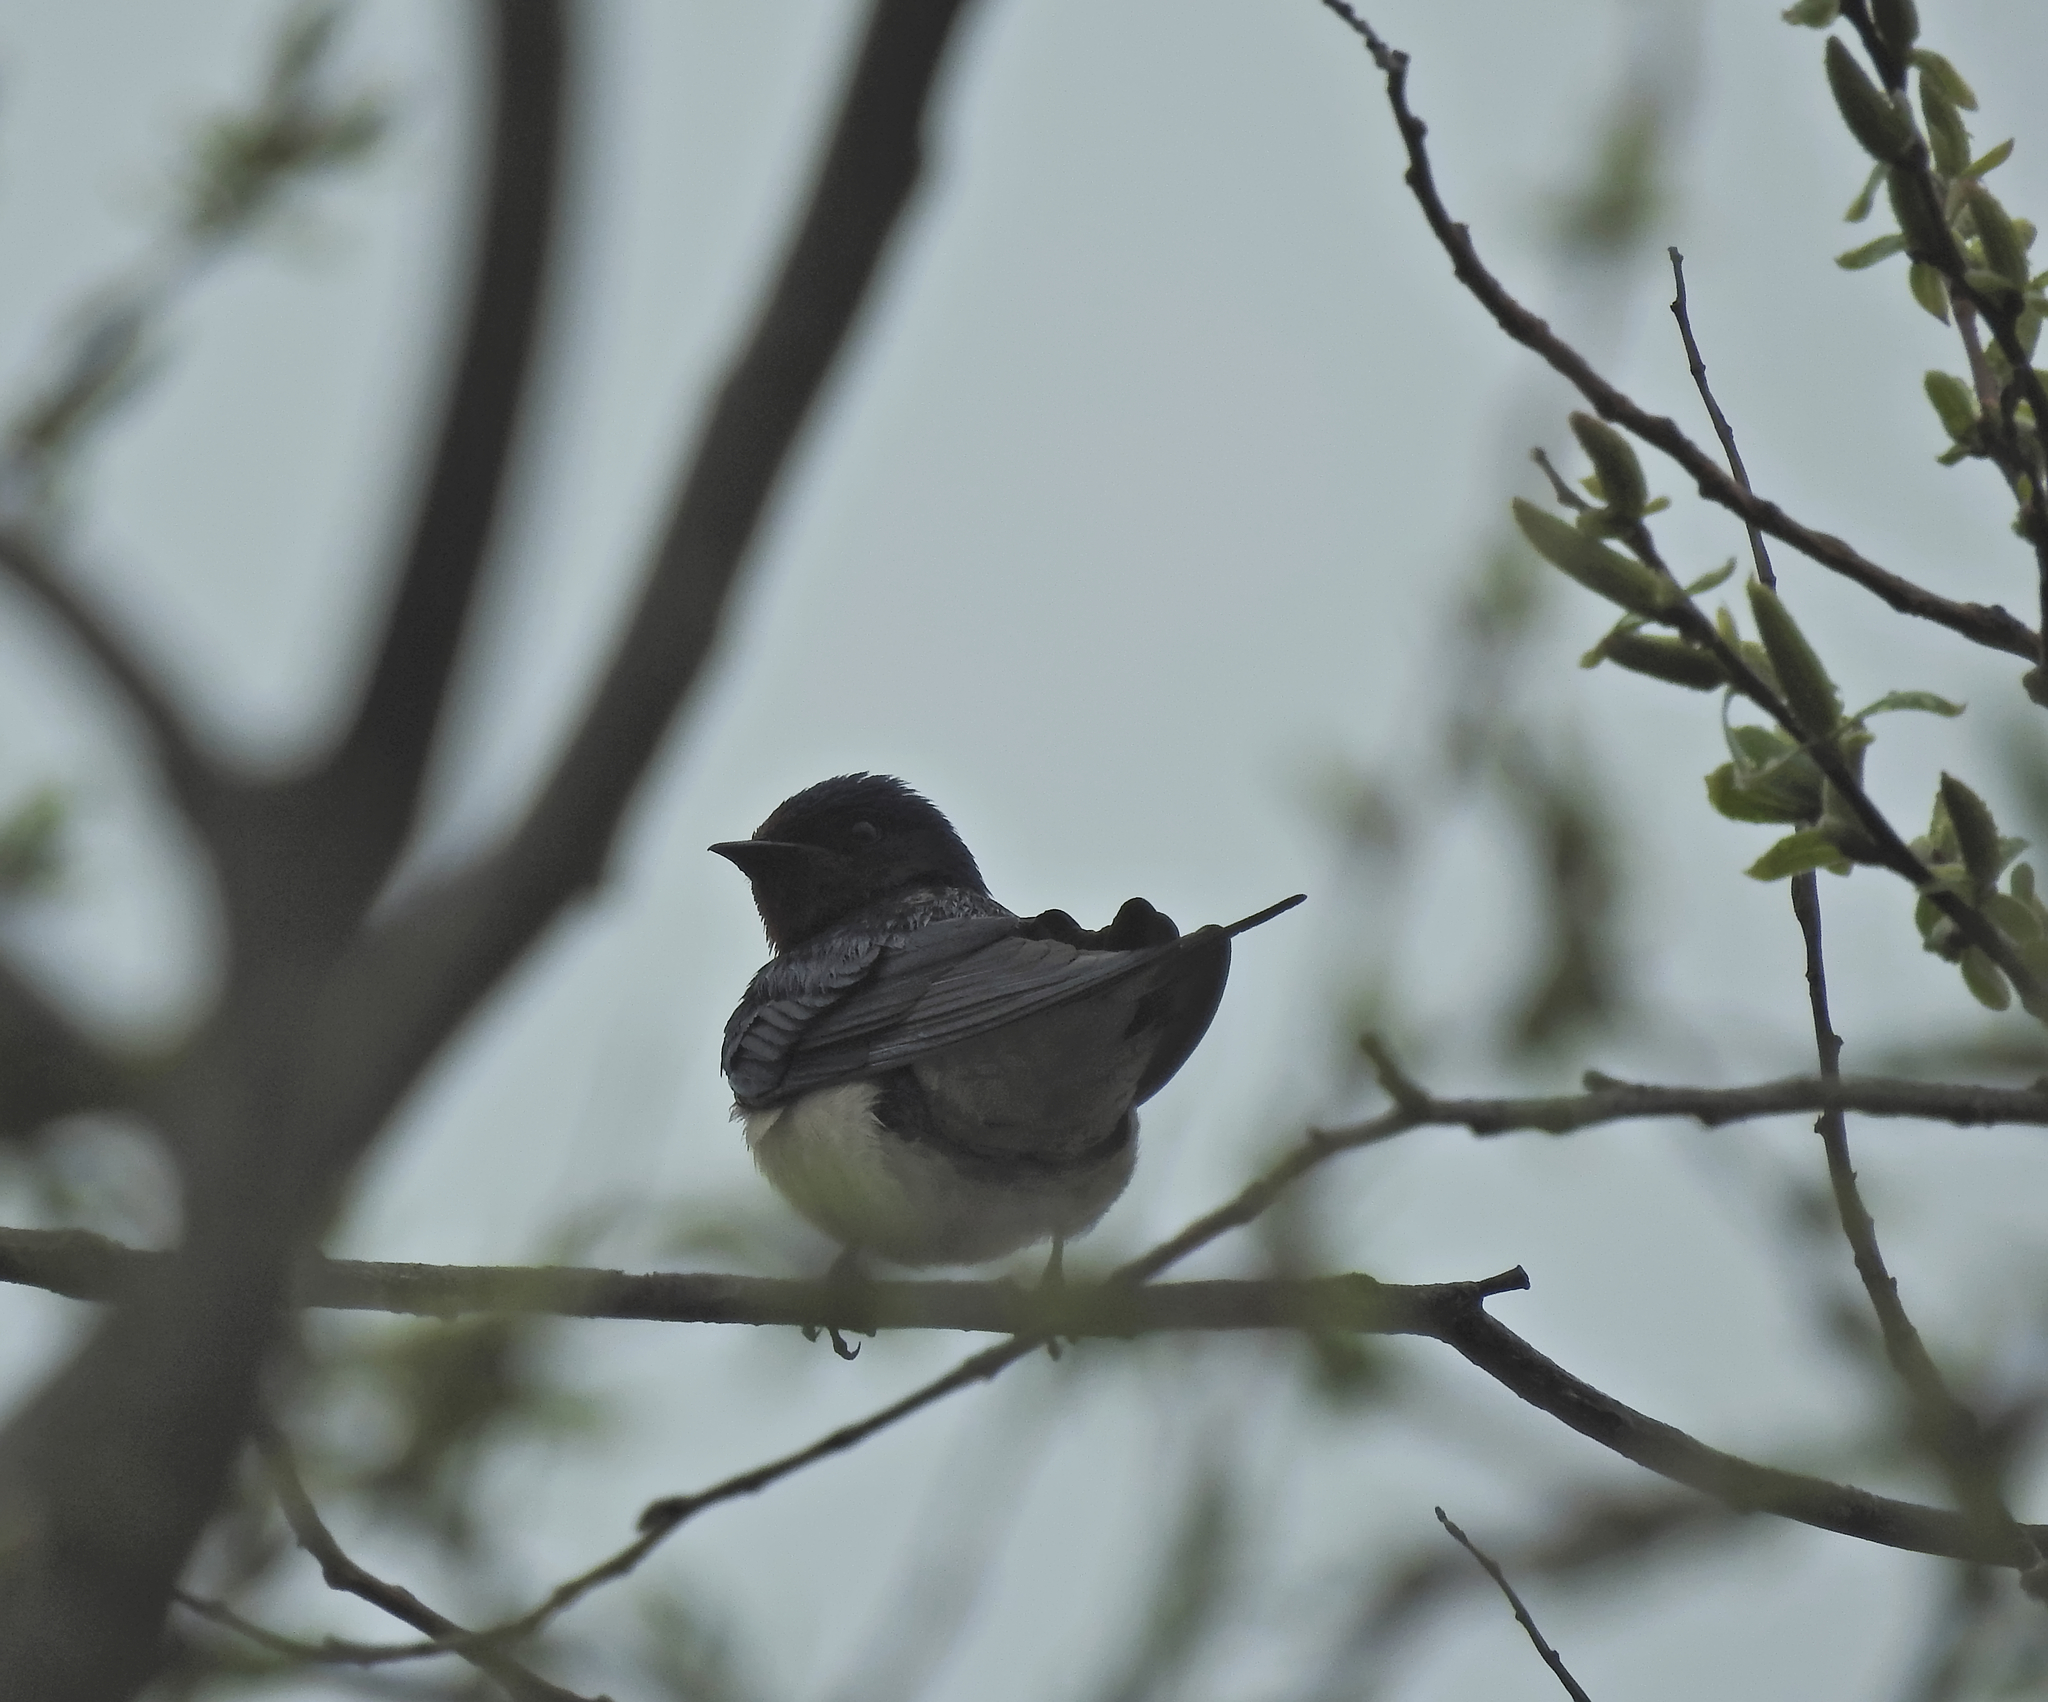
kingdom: Animalia
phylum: Chordata
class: Aves
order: Passeriformes
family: Hirundinidae
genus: Hirundo
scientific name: Hirundo rustica
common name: Barn swallow
